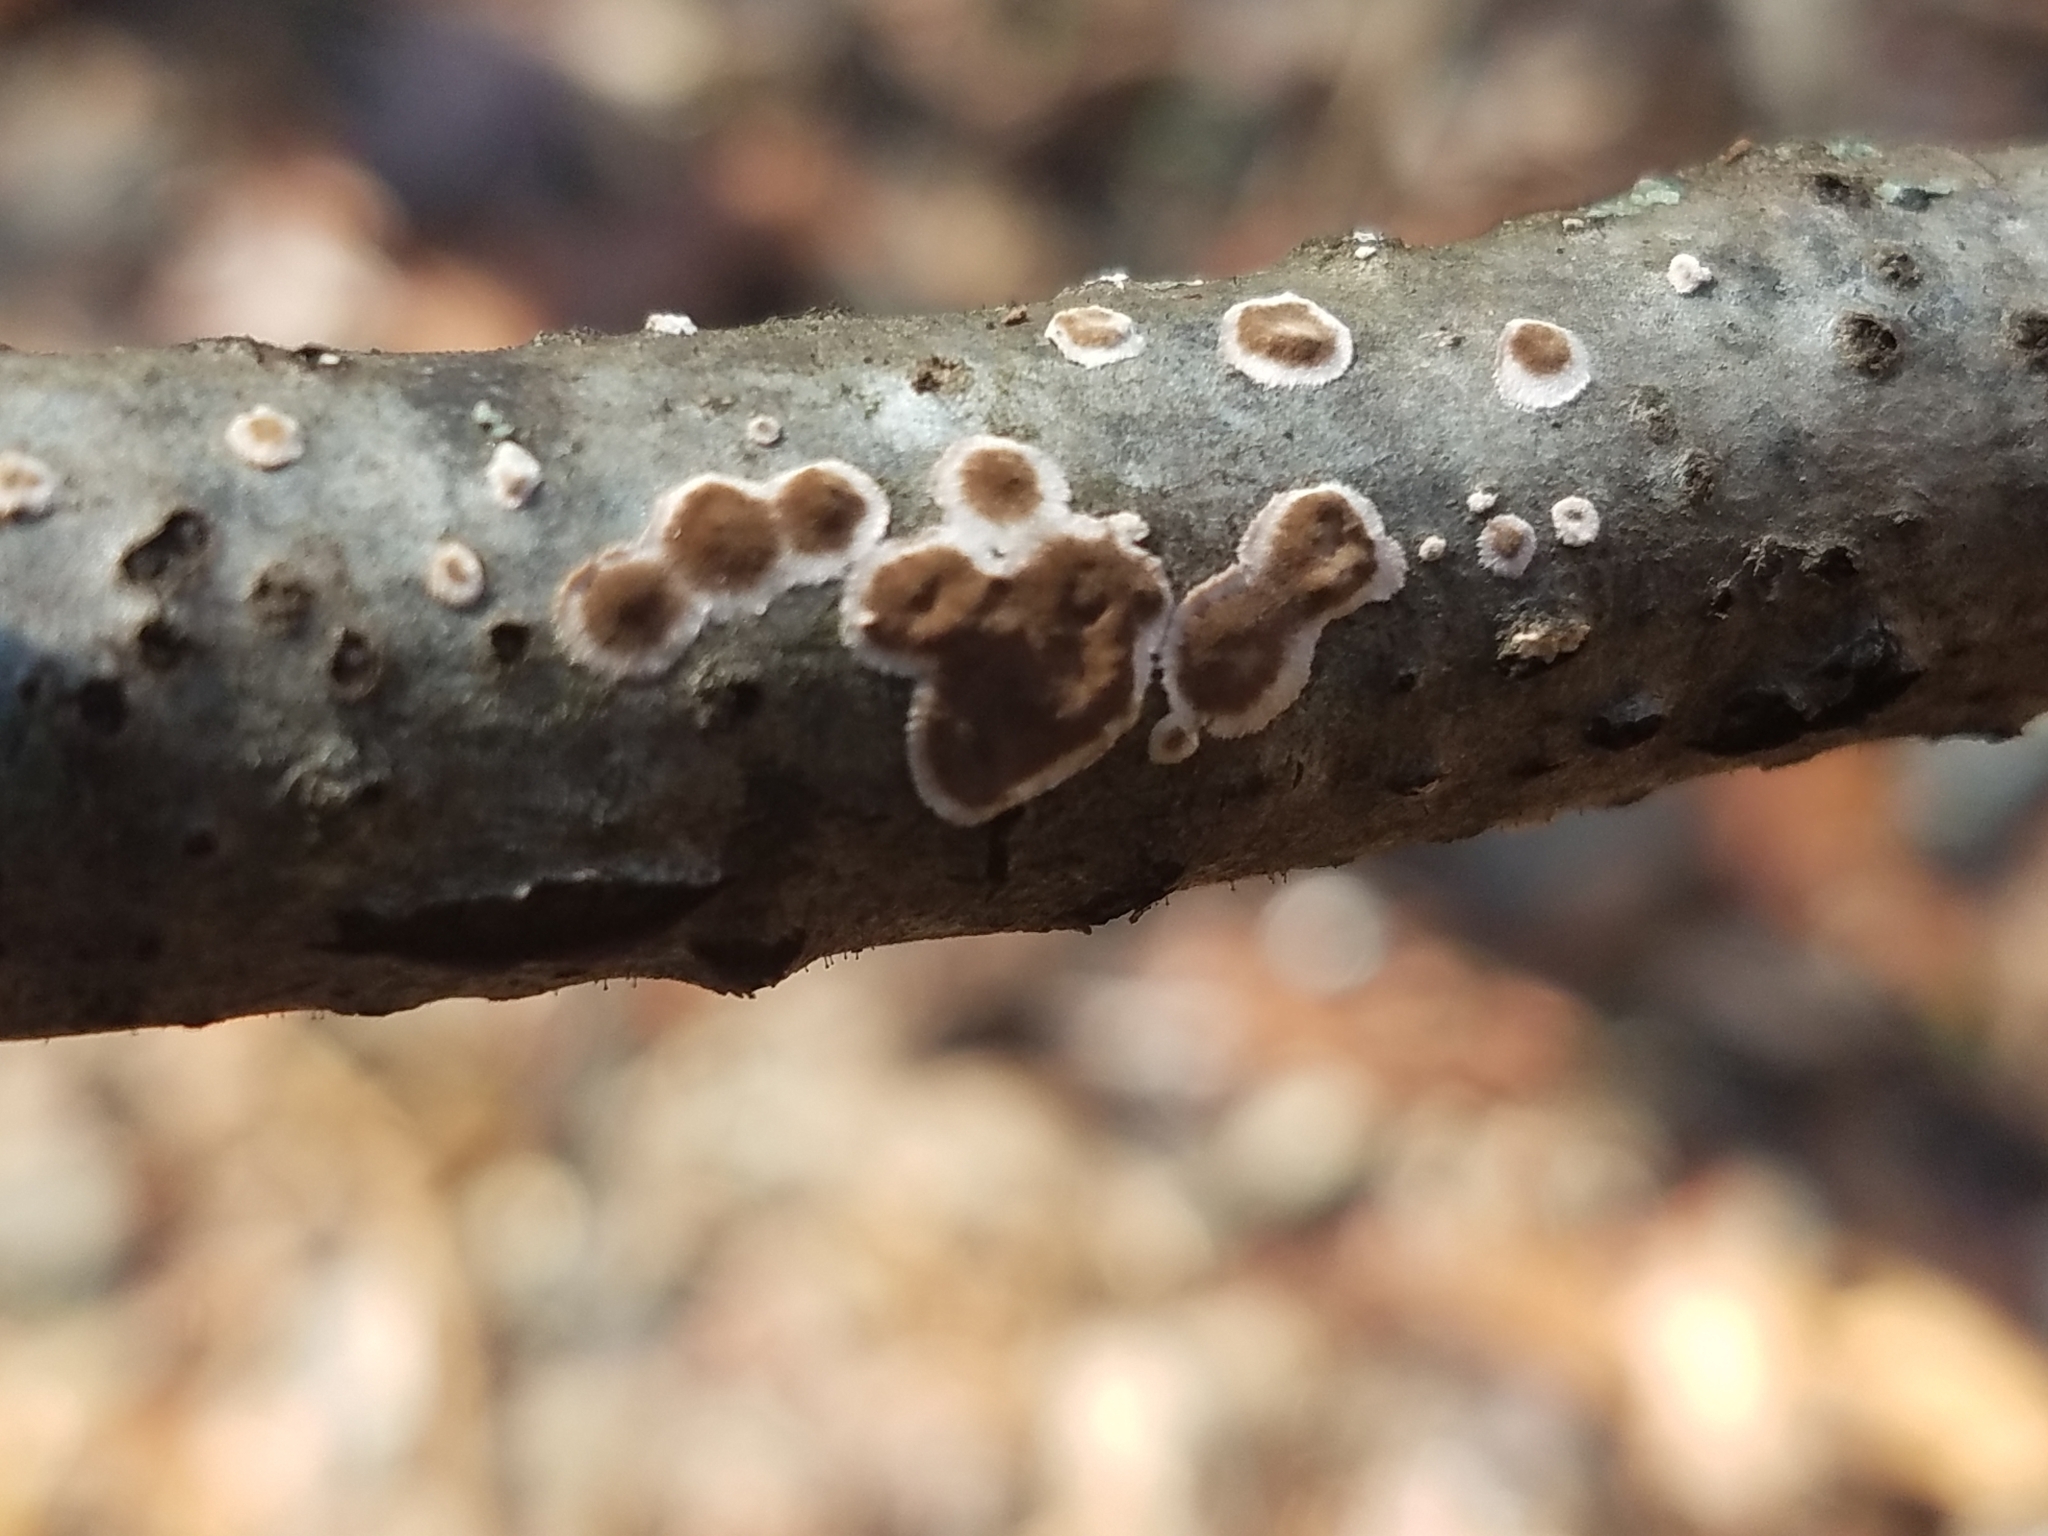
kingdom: Fungi
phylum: Basidiomycota
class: Agaricomycetes
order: Russulales
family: Peniophoraceae
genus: Peniophora
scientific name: Peniophora albobadia
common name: Giraffe spots
